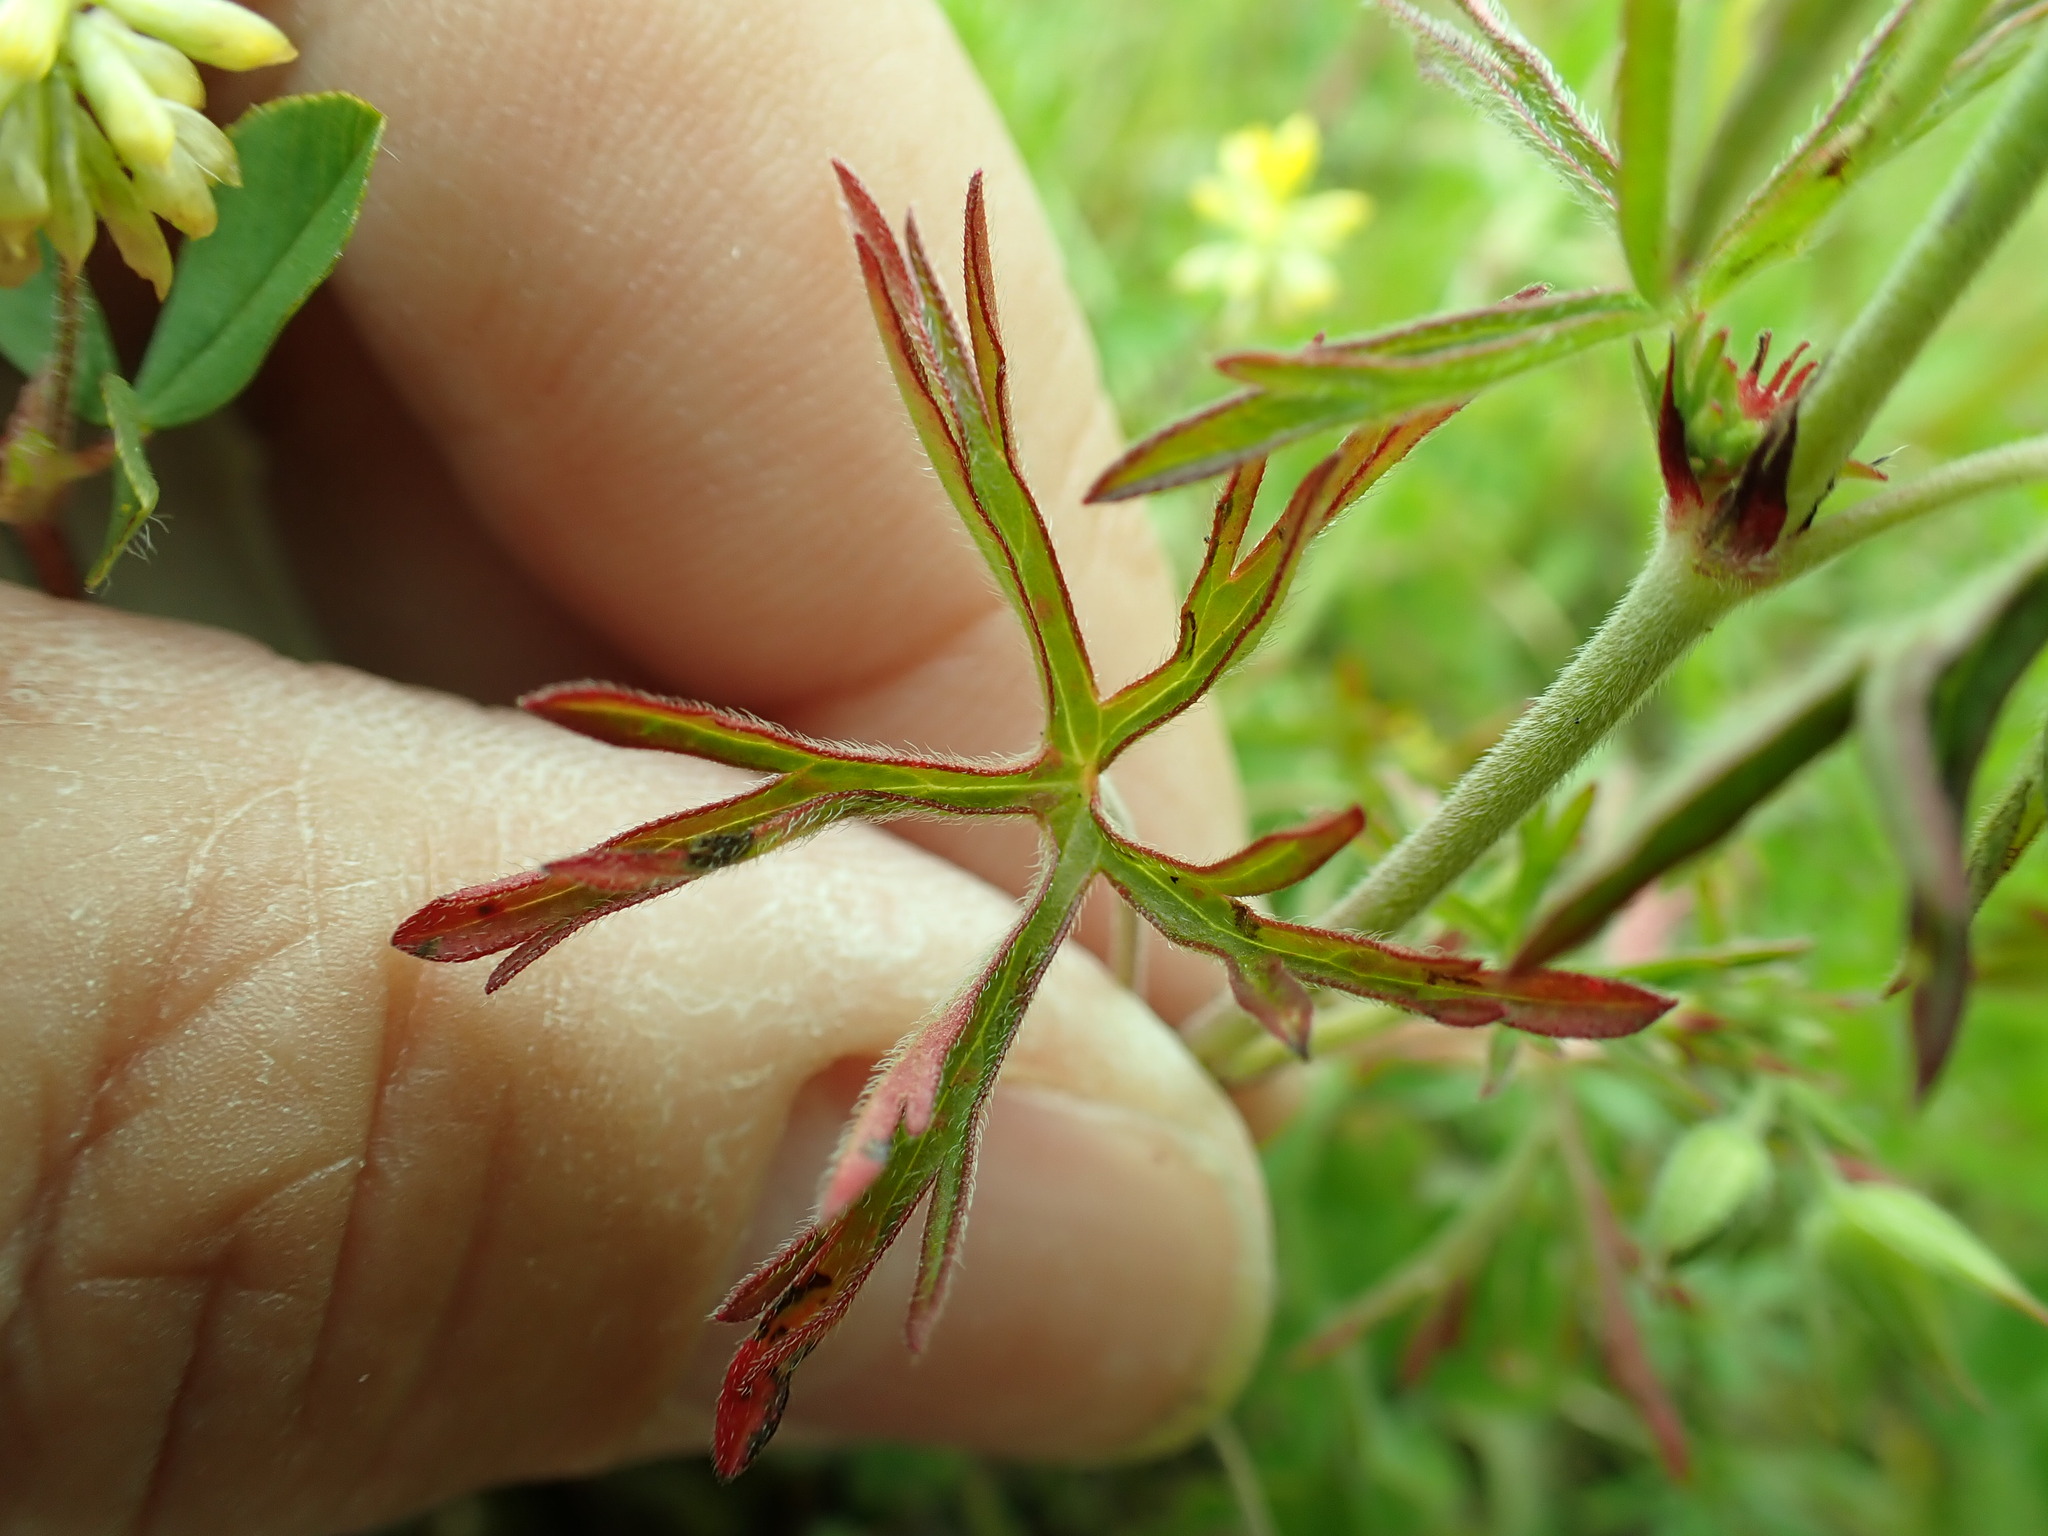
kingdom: Plantae
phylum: Tracheophyta
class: Magnoliopsida
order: Geraniales
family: Geraniaceae
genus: Geranium
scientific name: Geranium dissectum
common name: Cut-leaved crane's-bill
